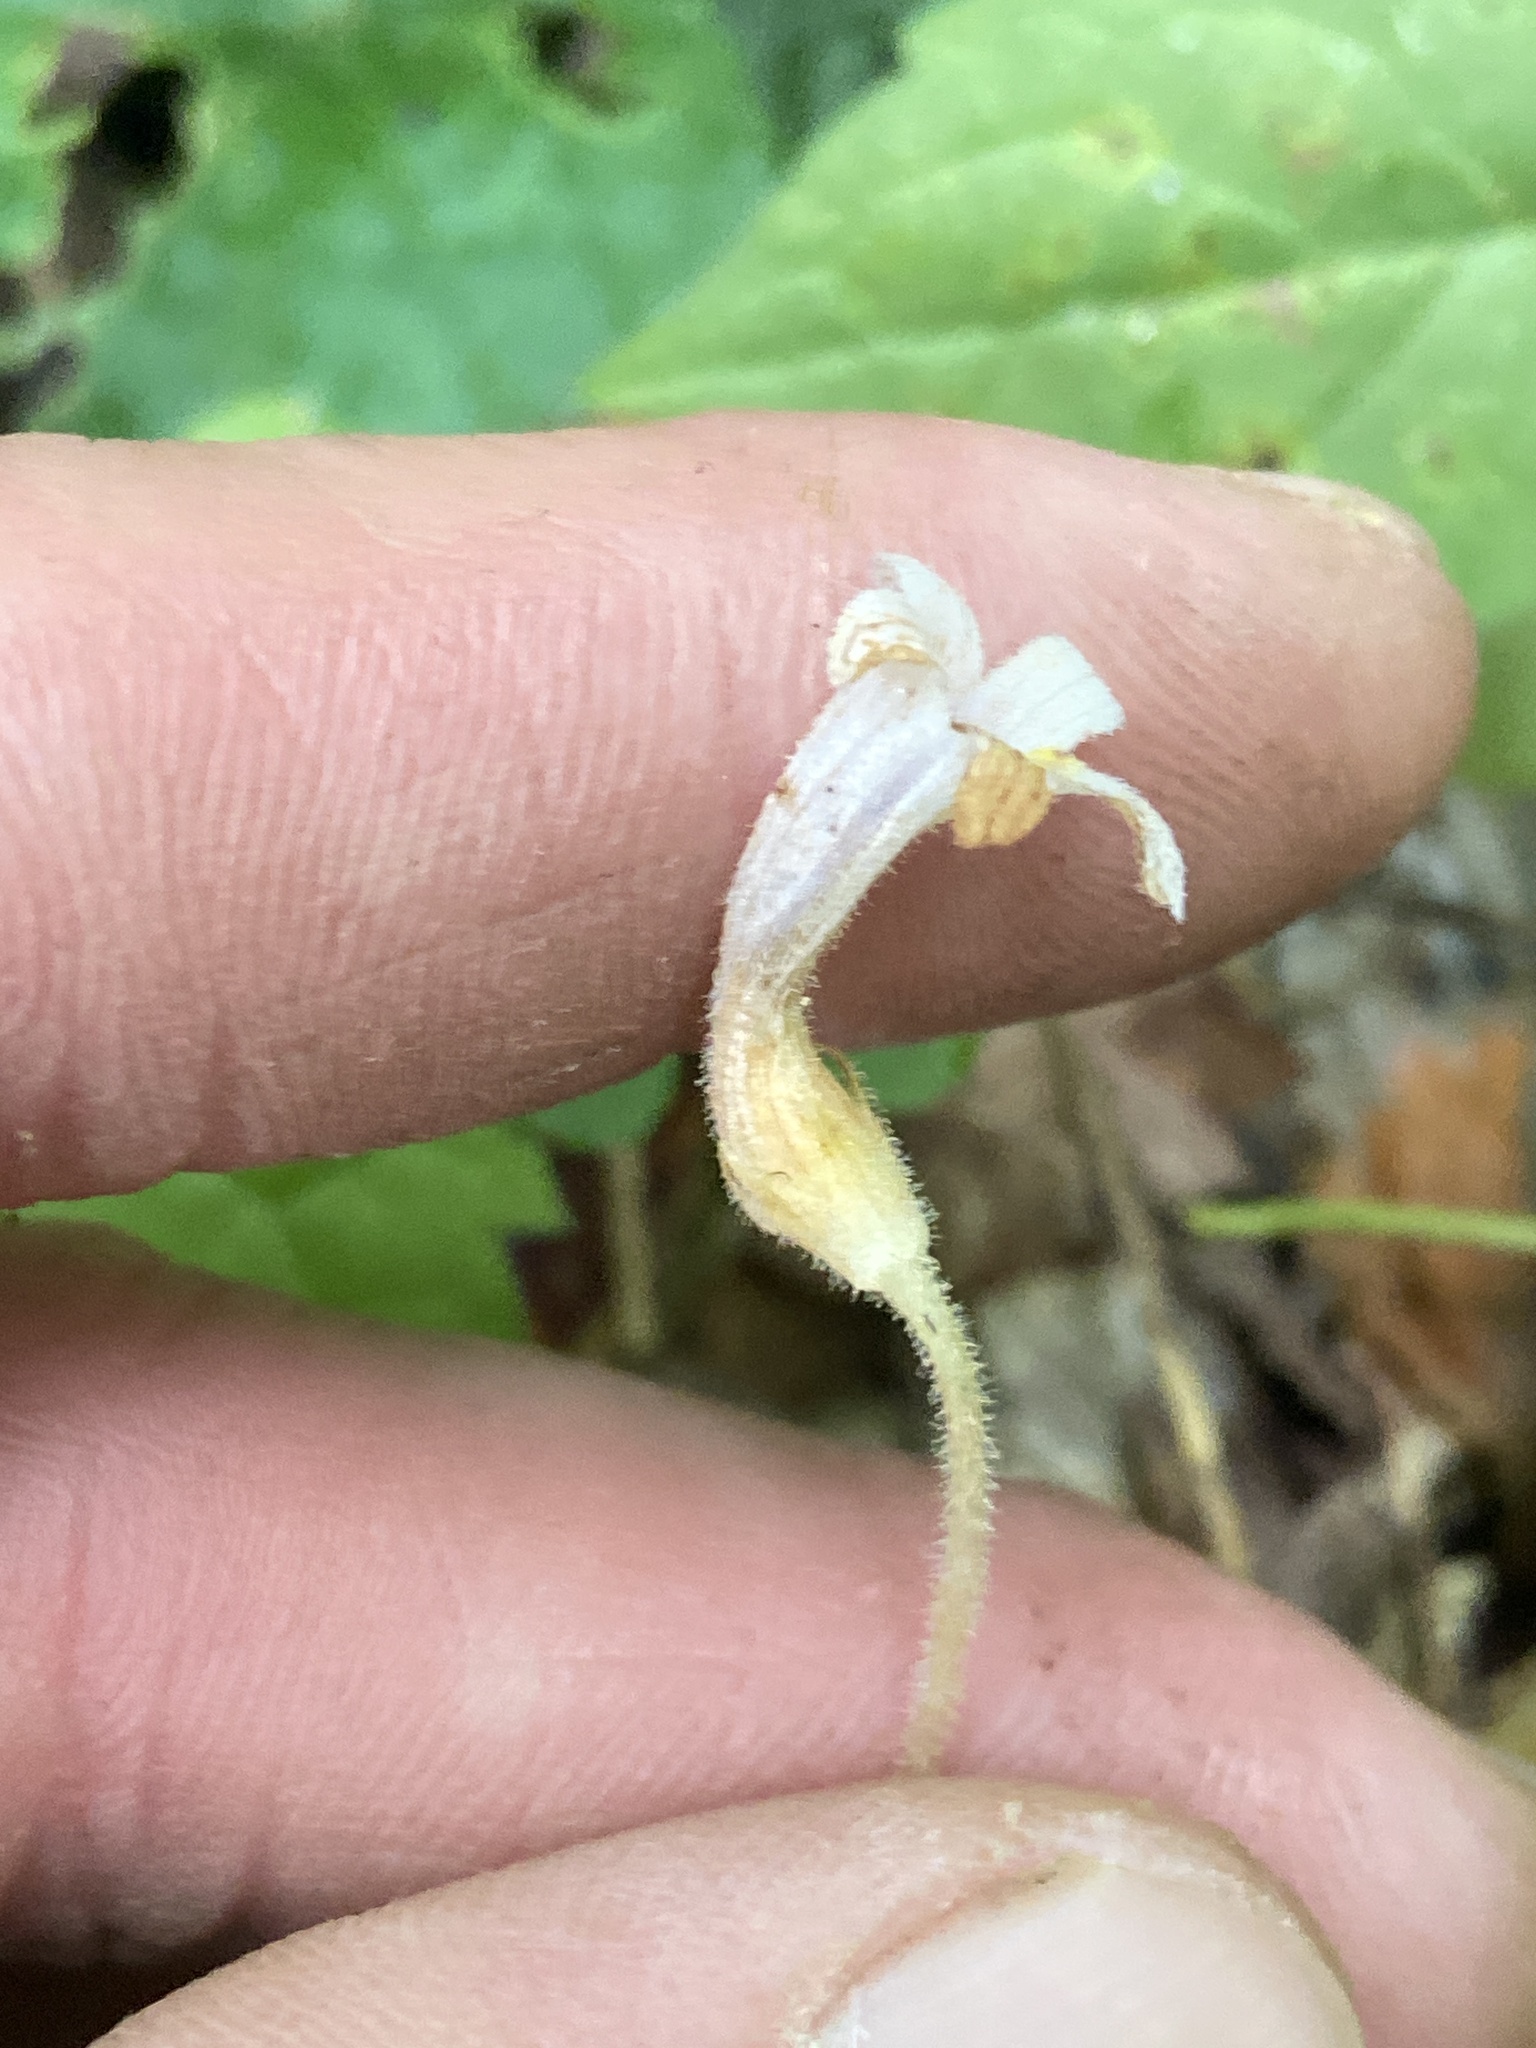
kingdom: Plantae
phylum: Tracheophyta
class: Magnoliopsida
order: Lamiales
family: Orobanchaceae
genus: Aphyllon
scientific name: Aphyllon uniflorum
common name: One-flowered broomrape
